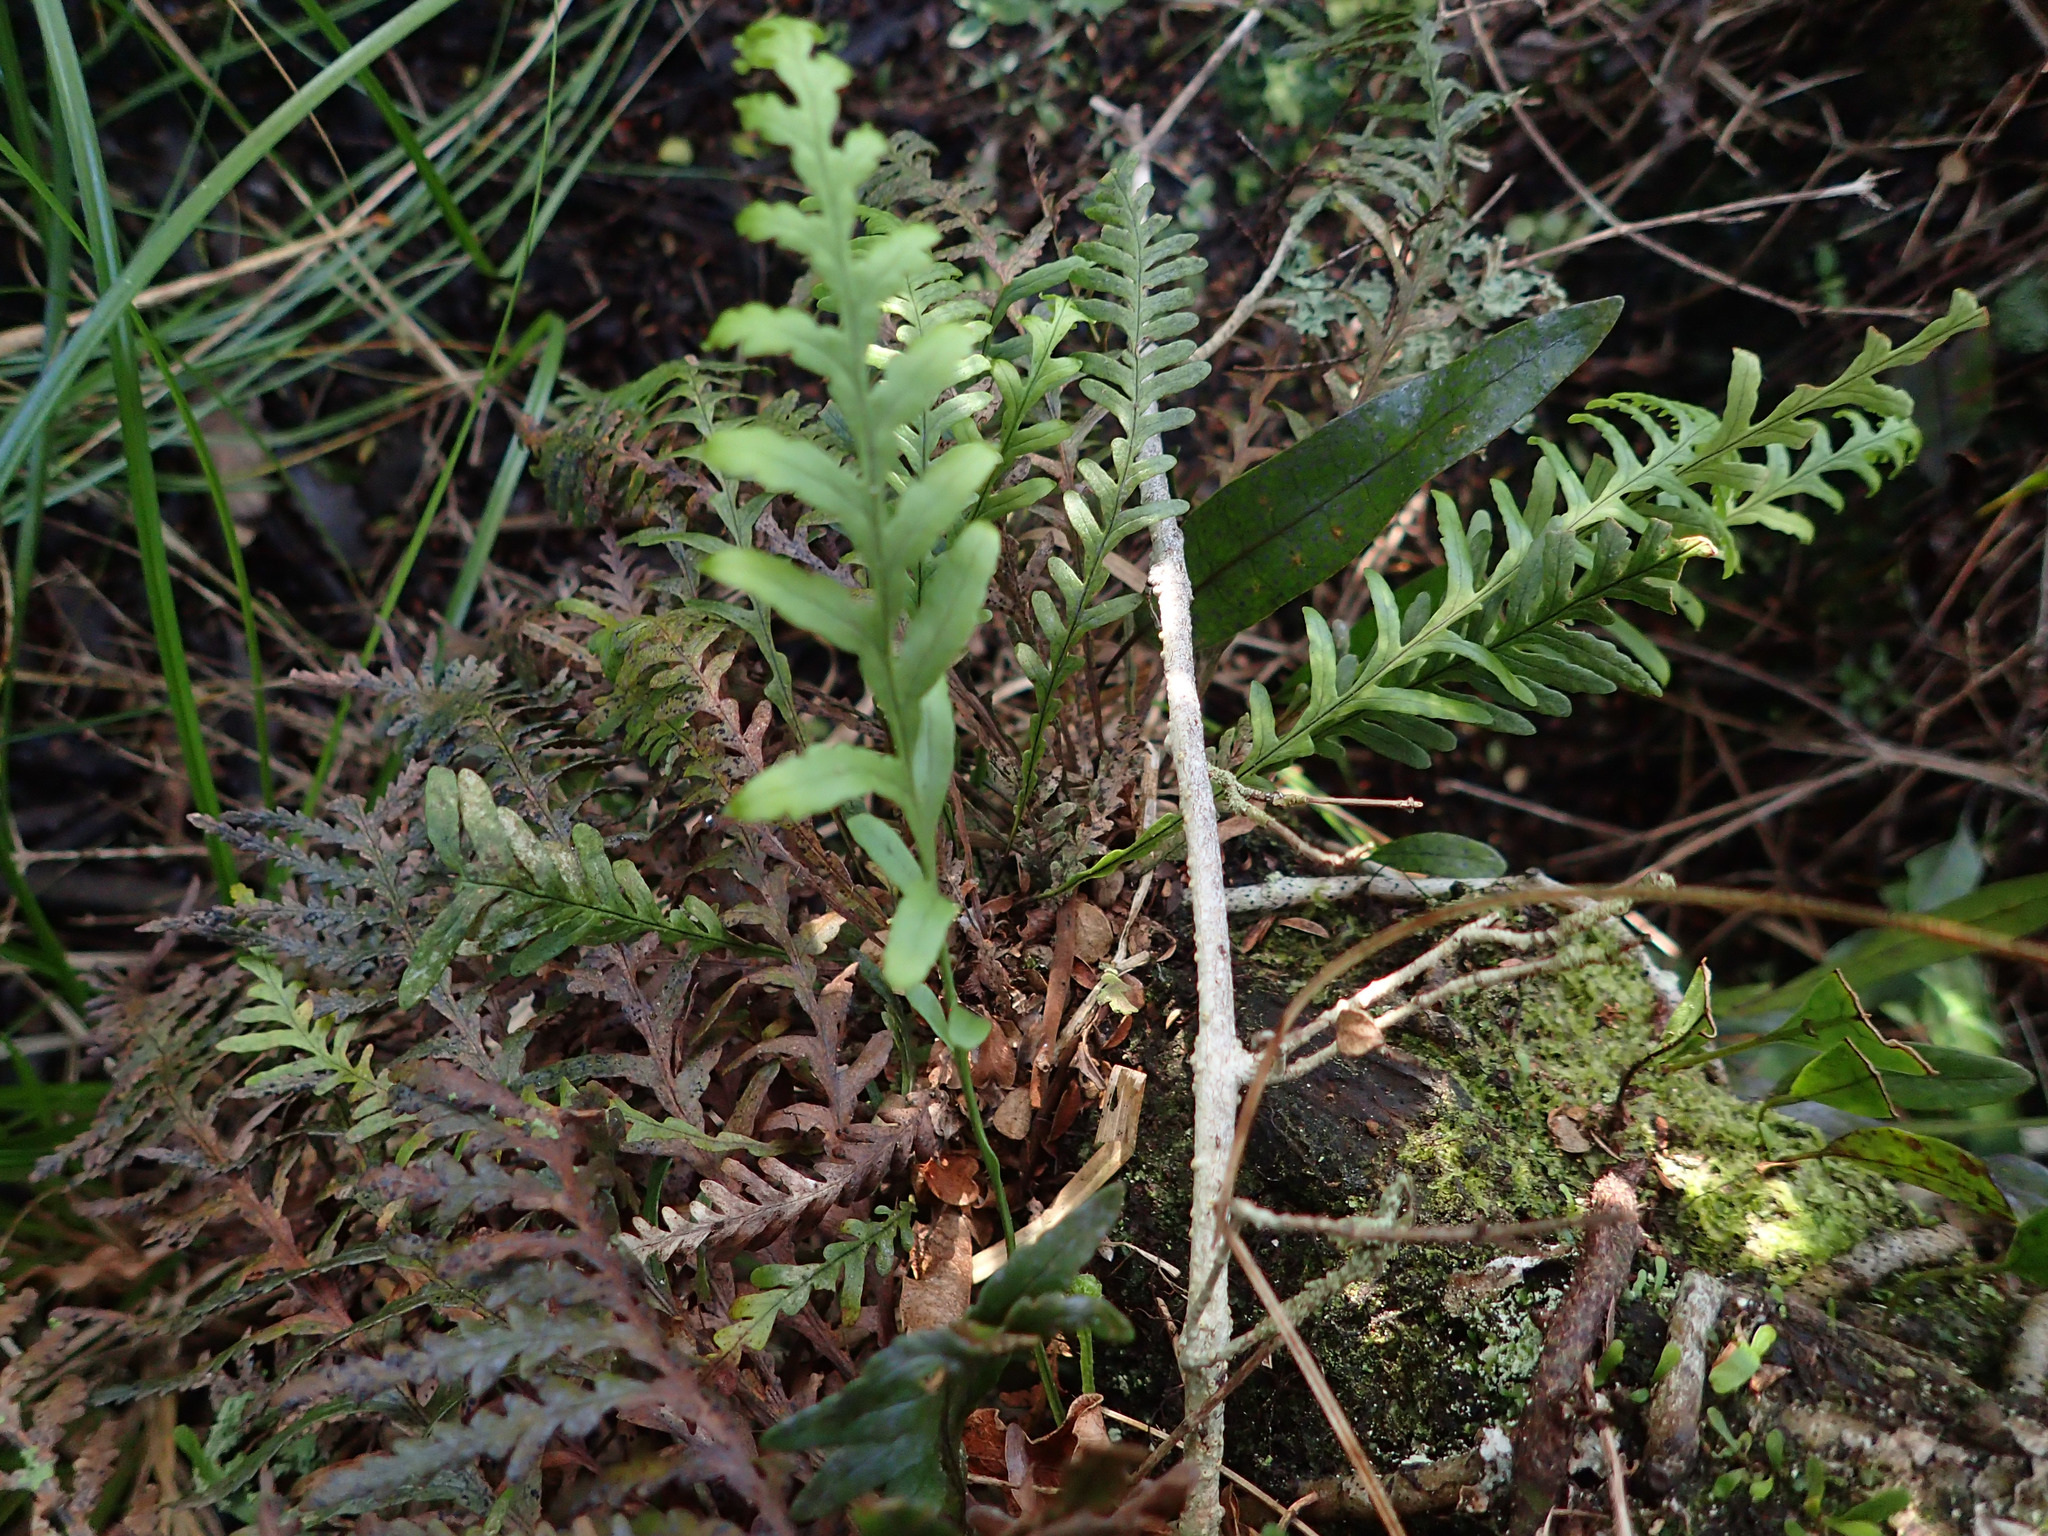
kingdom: Plantae
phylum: Tracheophyta
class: Polypodiopsida
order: Polypodiales
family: Polypodiaceae
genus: Notogrammitis
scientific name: Notogrammitis heterophylla
